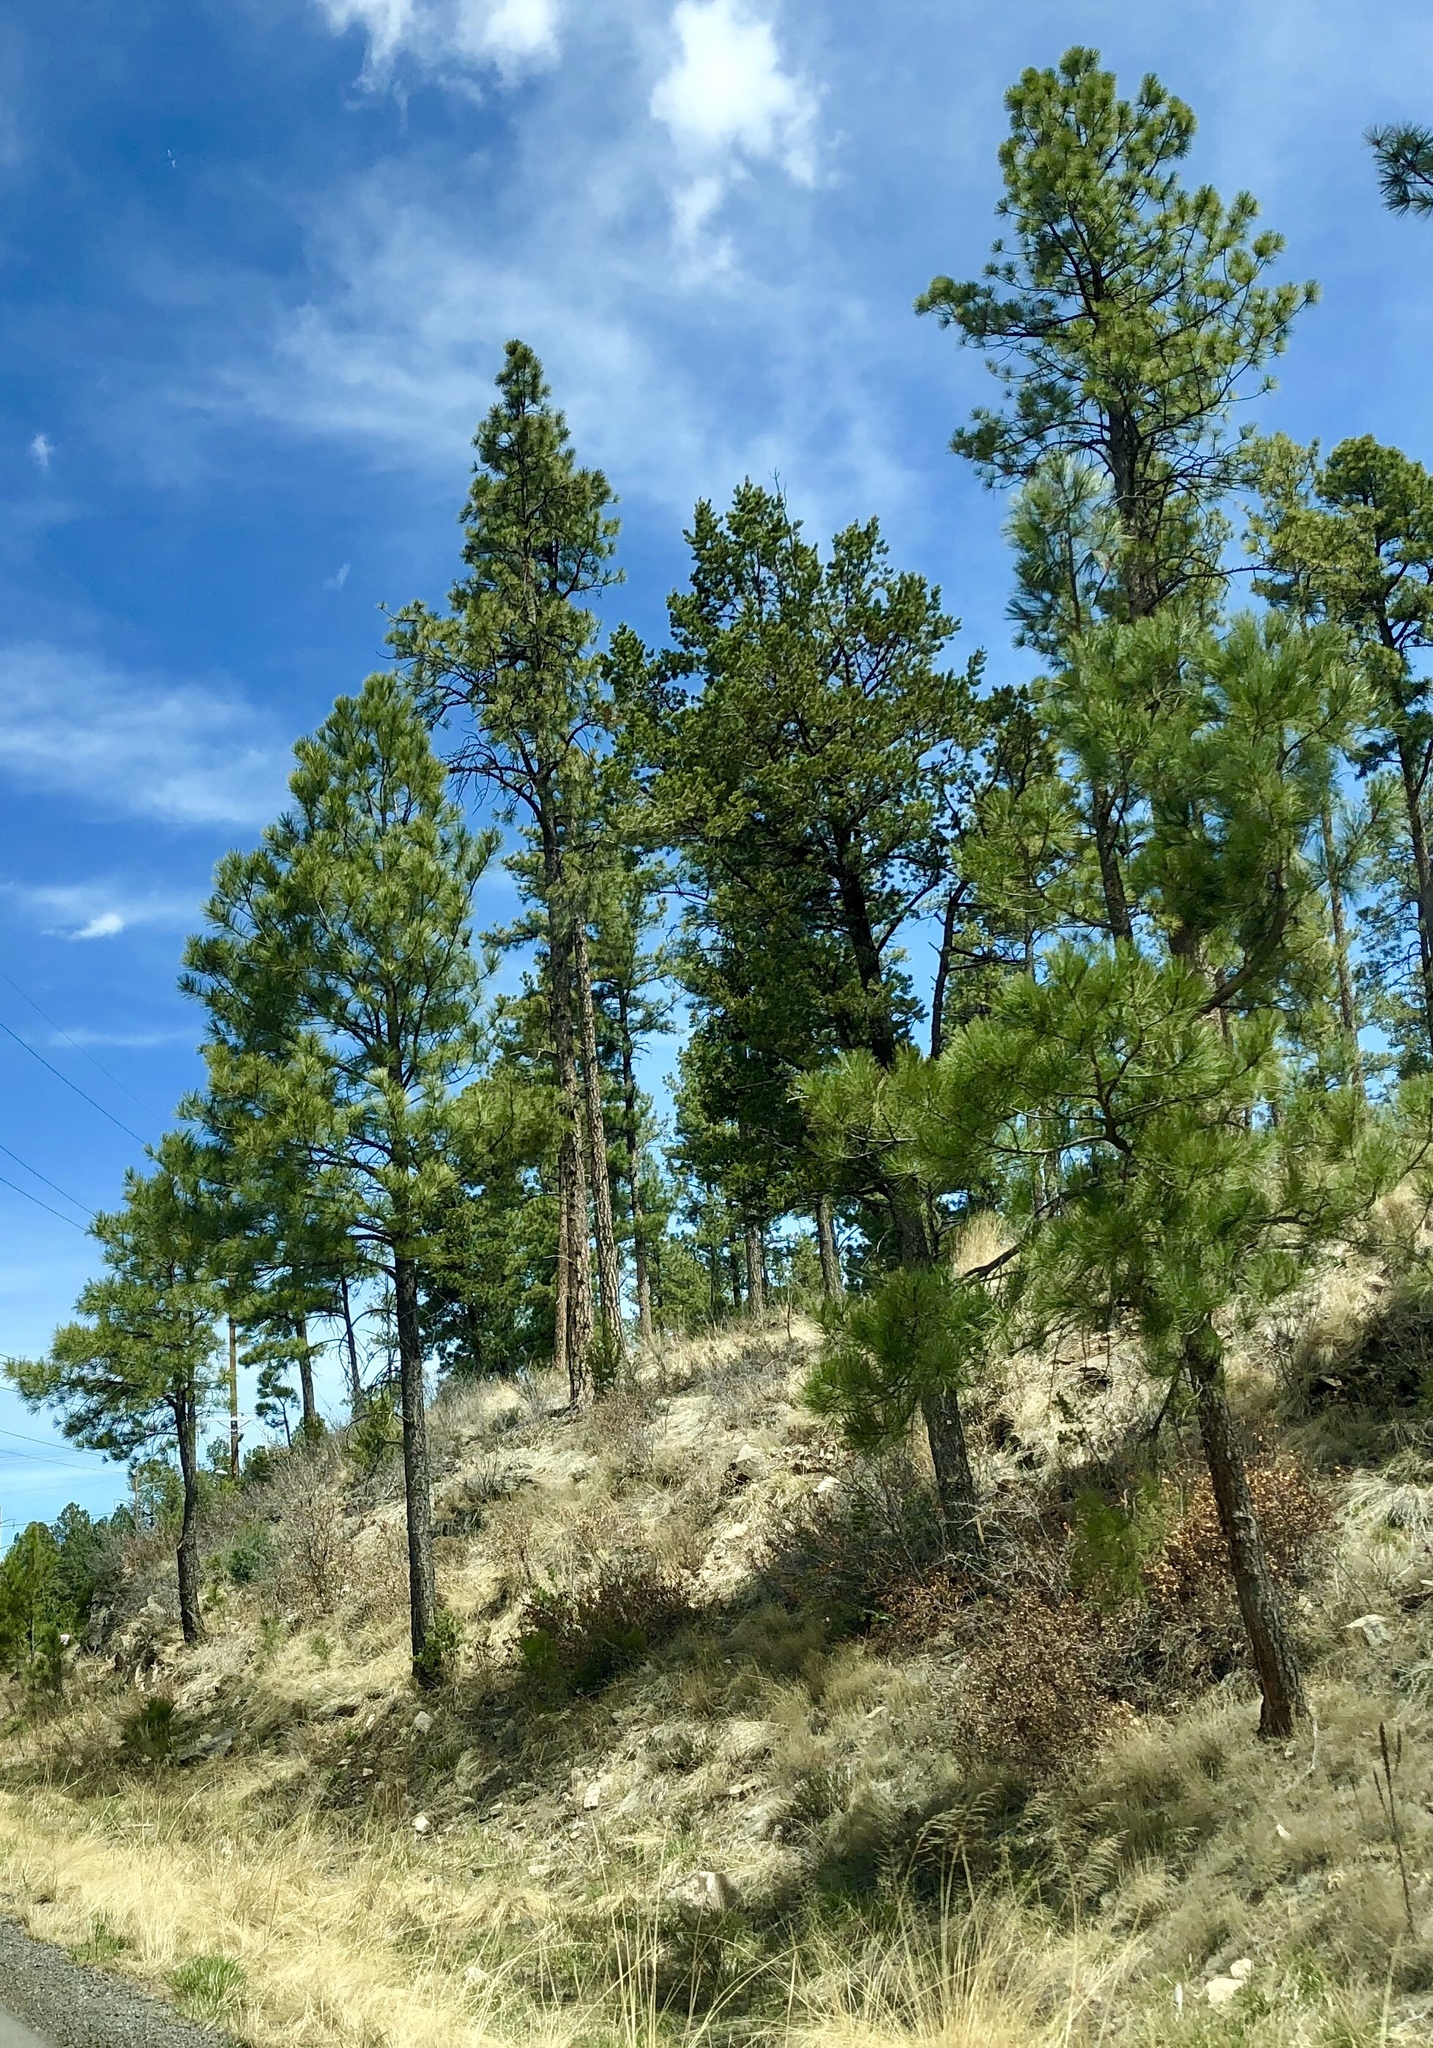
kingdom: Plantae
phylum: Tracheophyta
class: Pinopsida
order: Pinales
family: Pinaceae
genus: Pinus
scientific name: Pinus ponderosa
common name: Western yellow-pine
